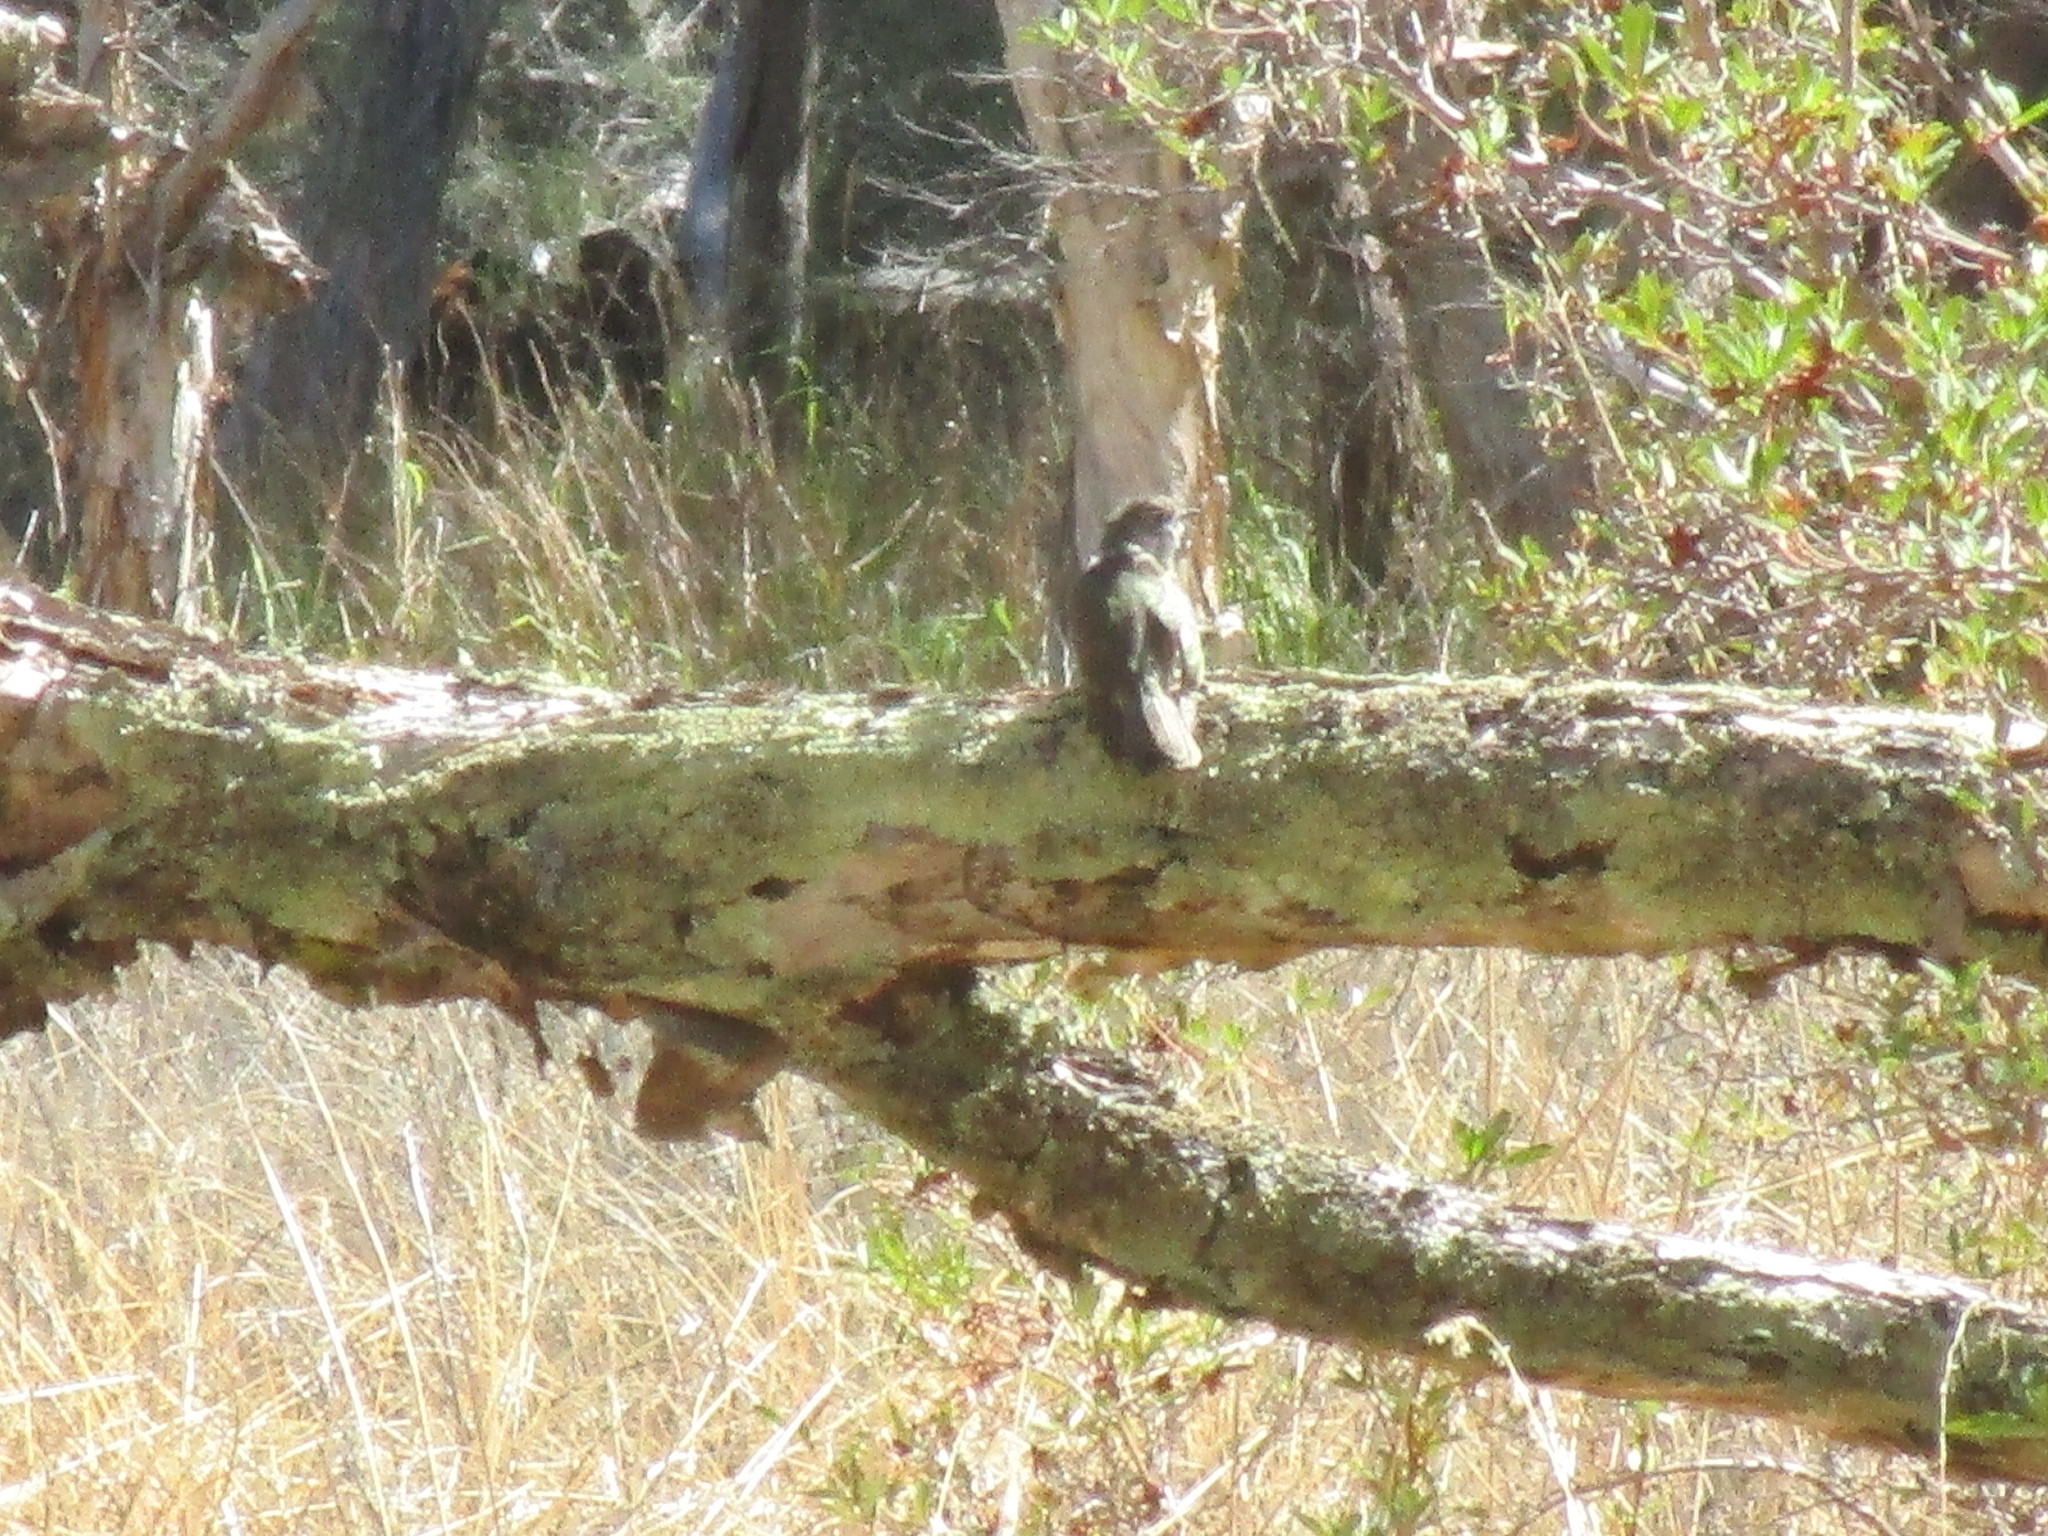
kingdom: Animalia
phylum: Chordata
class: Aves
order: Cuculiformes
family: Cuculidae
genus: Chrysococcyx
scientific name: Chrysococcyx lucidus
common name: Shining bronze cuckoo
